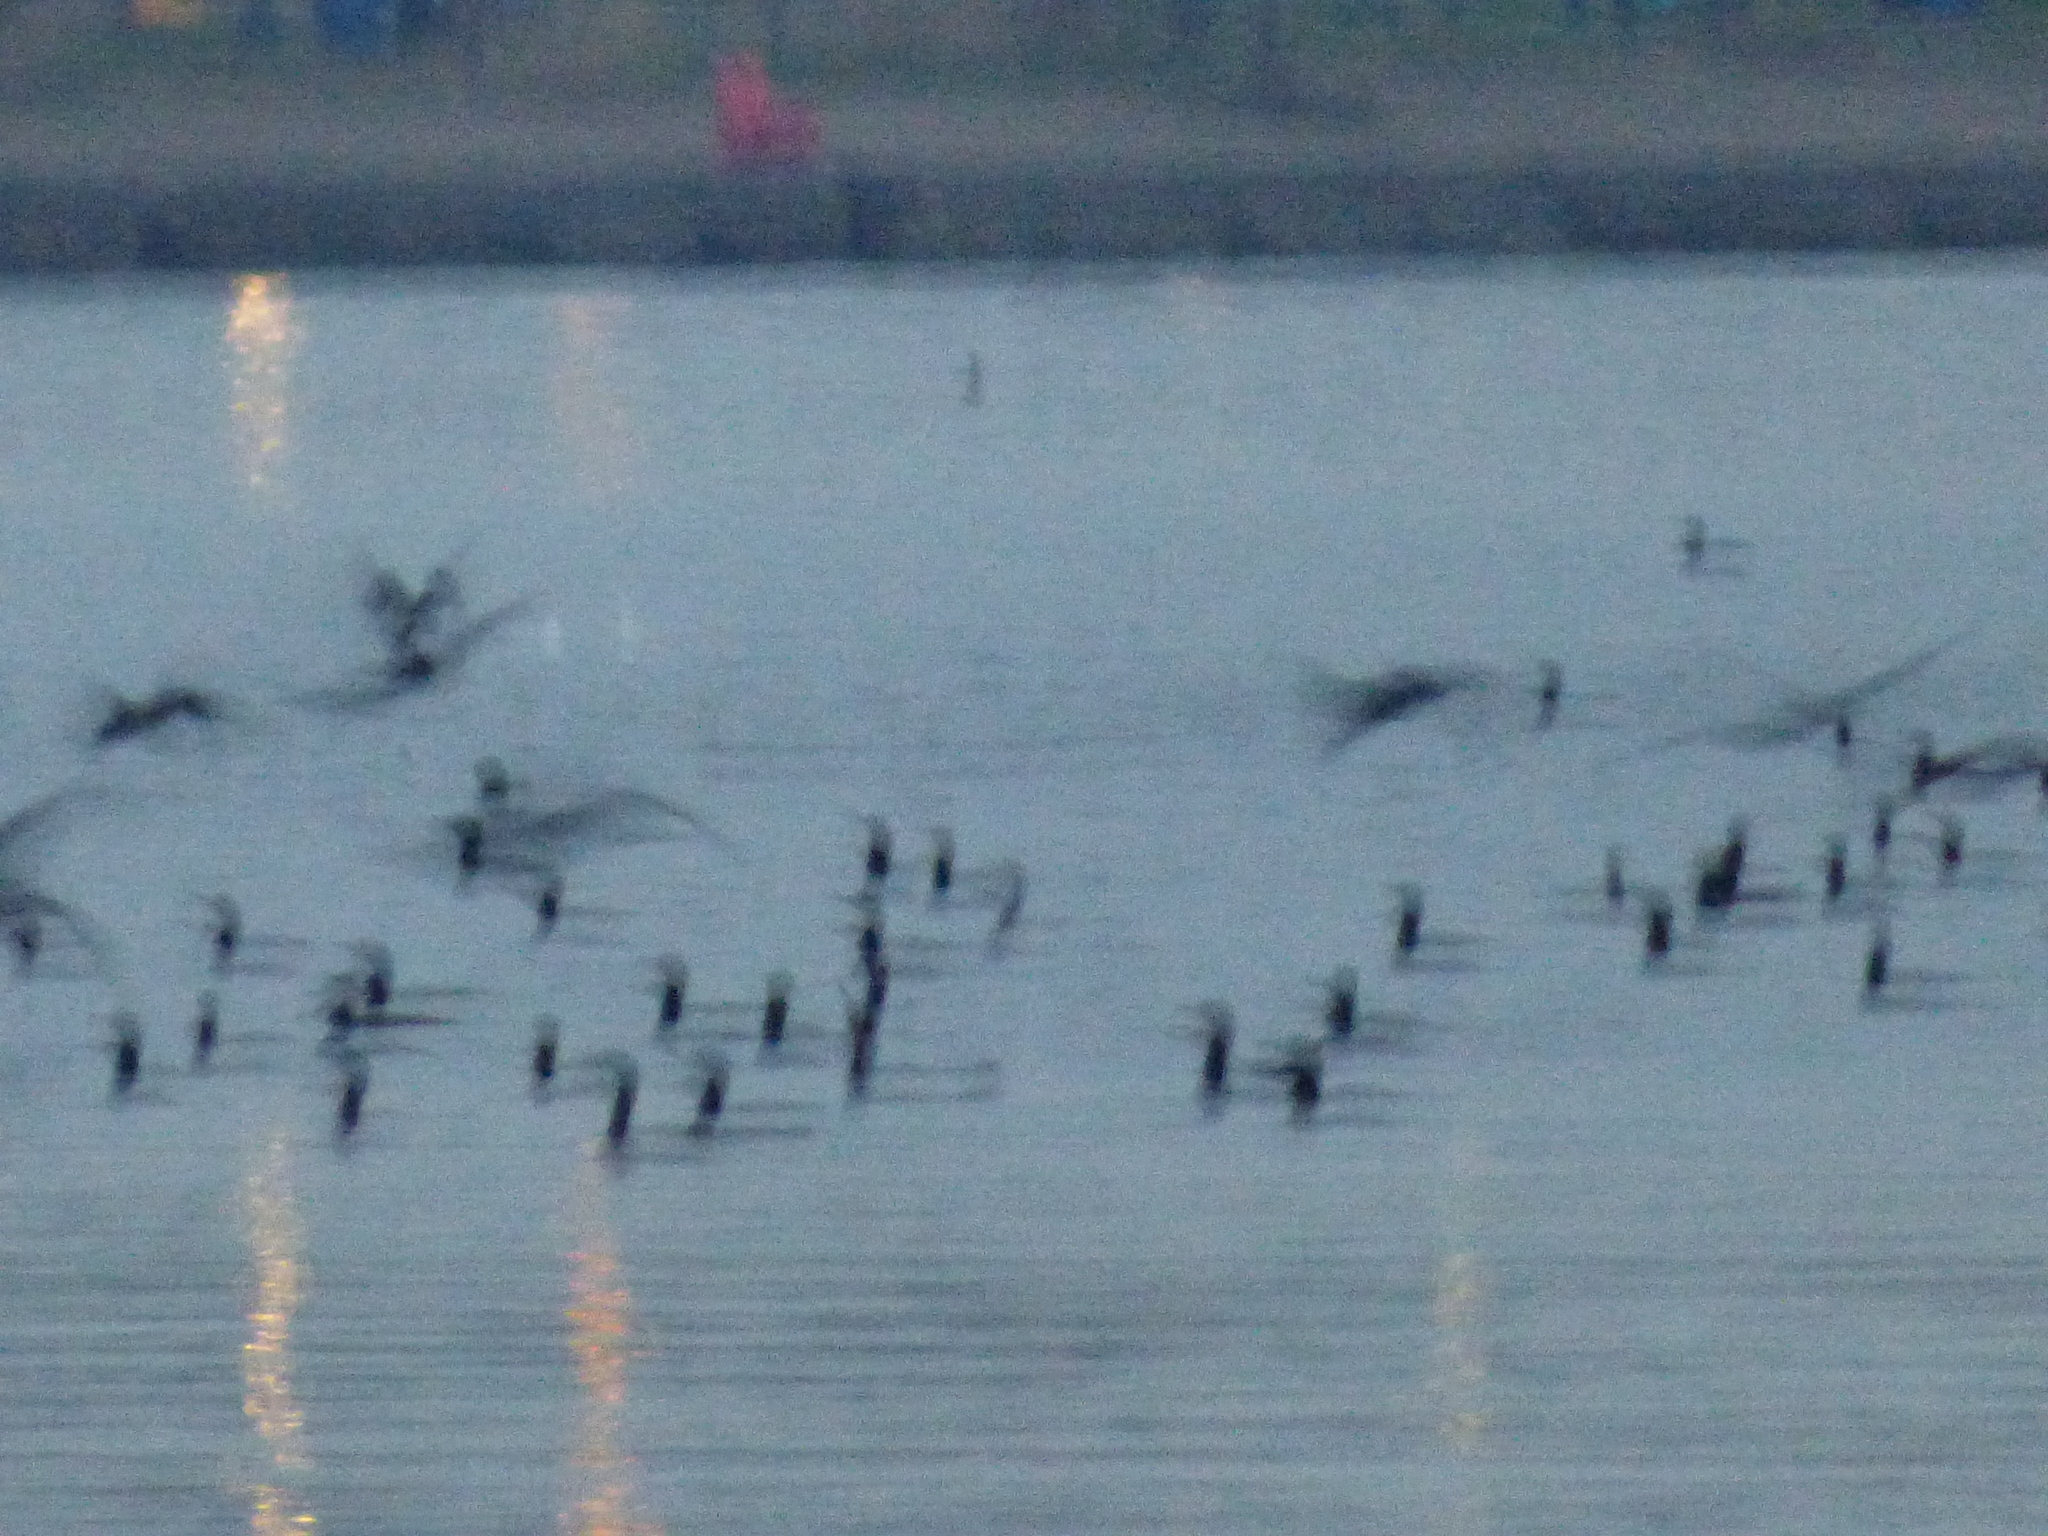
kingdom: Animalia
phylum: Chordata
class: Aves
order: Suliformes
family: Phalacrocoracidae
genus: Phalacrocorax
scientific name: Phalacrocorax auritus
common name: Double-crested cormorant
